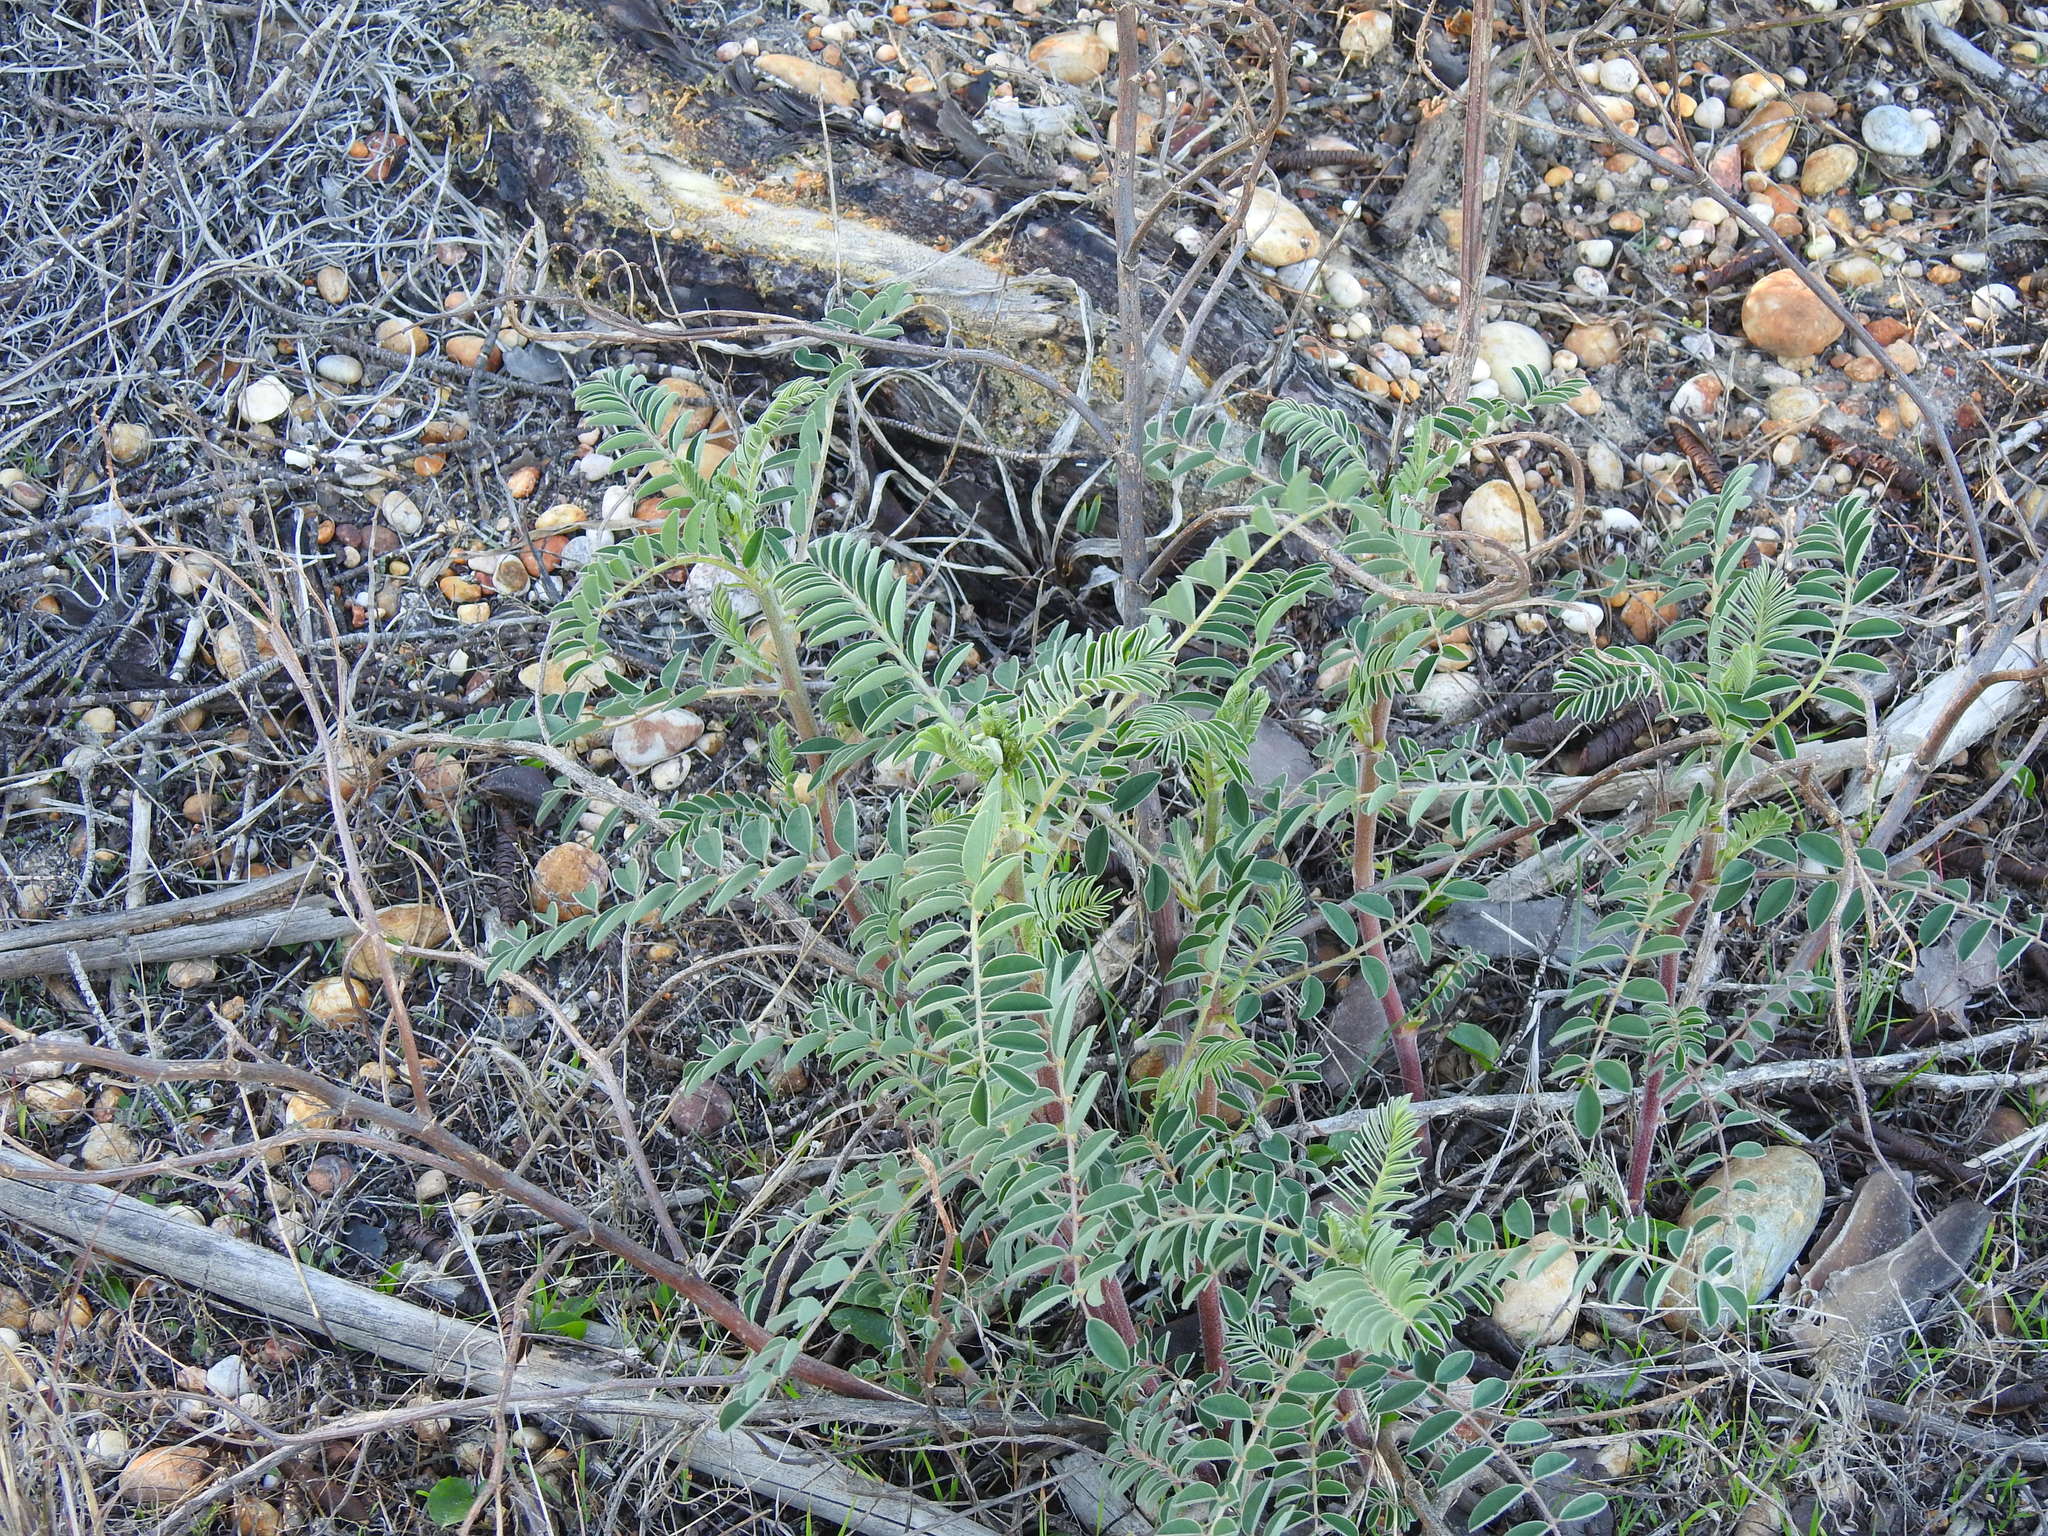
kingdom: Plantae
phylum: Tracheophyta
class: Magnoliopsida
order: Fabales
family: Fabaceae
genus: Erophaca
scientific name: Erophaca baetica
